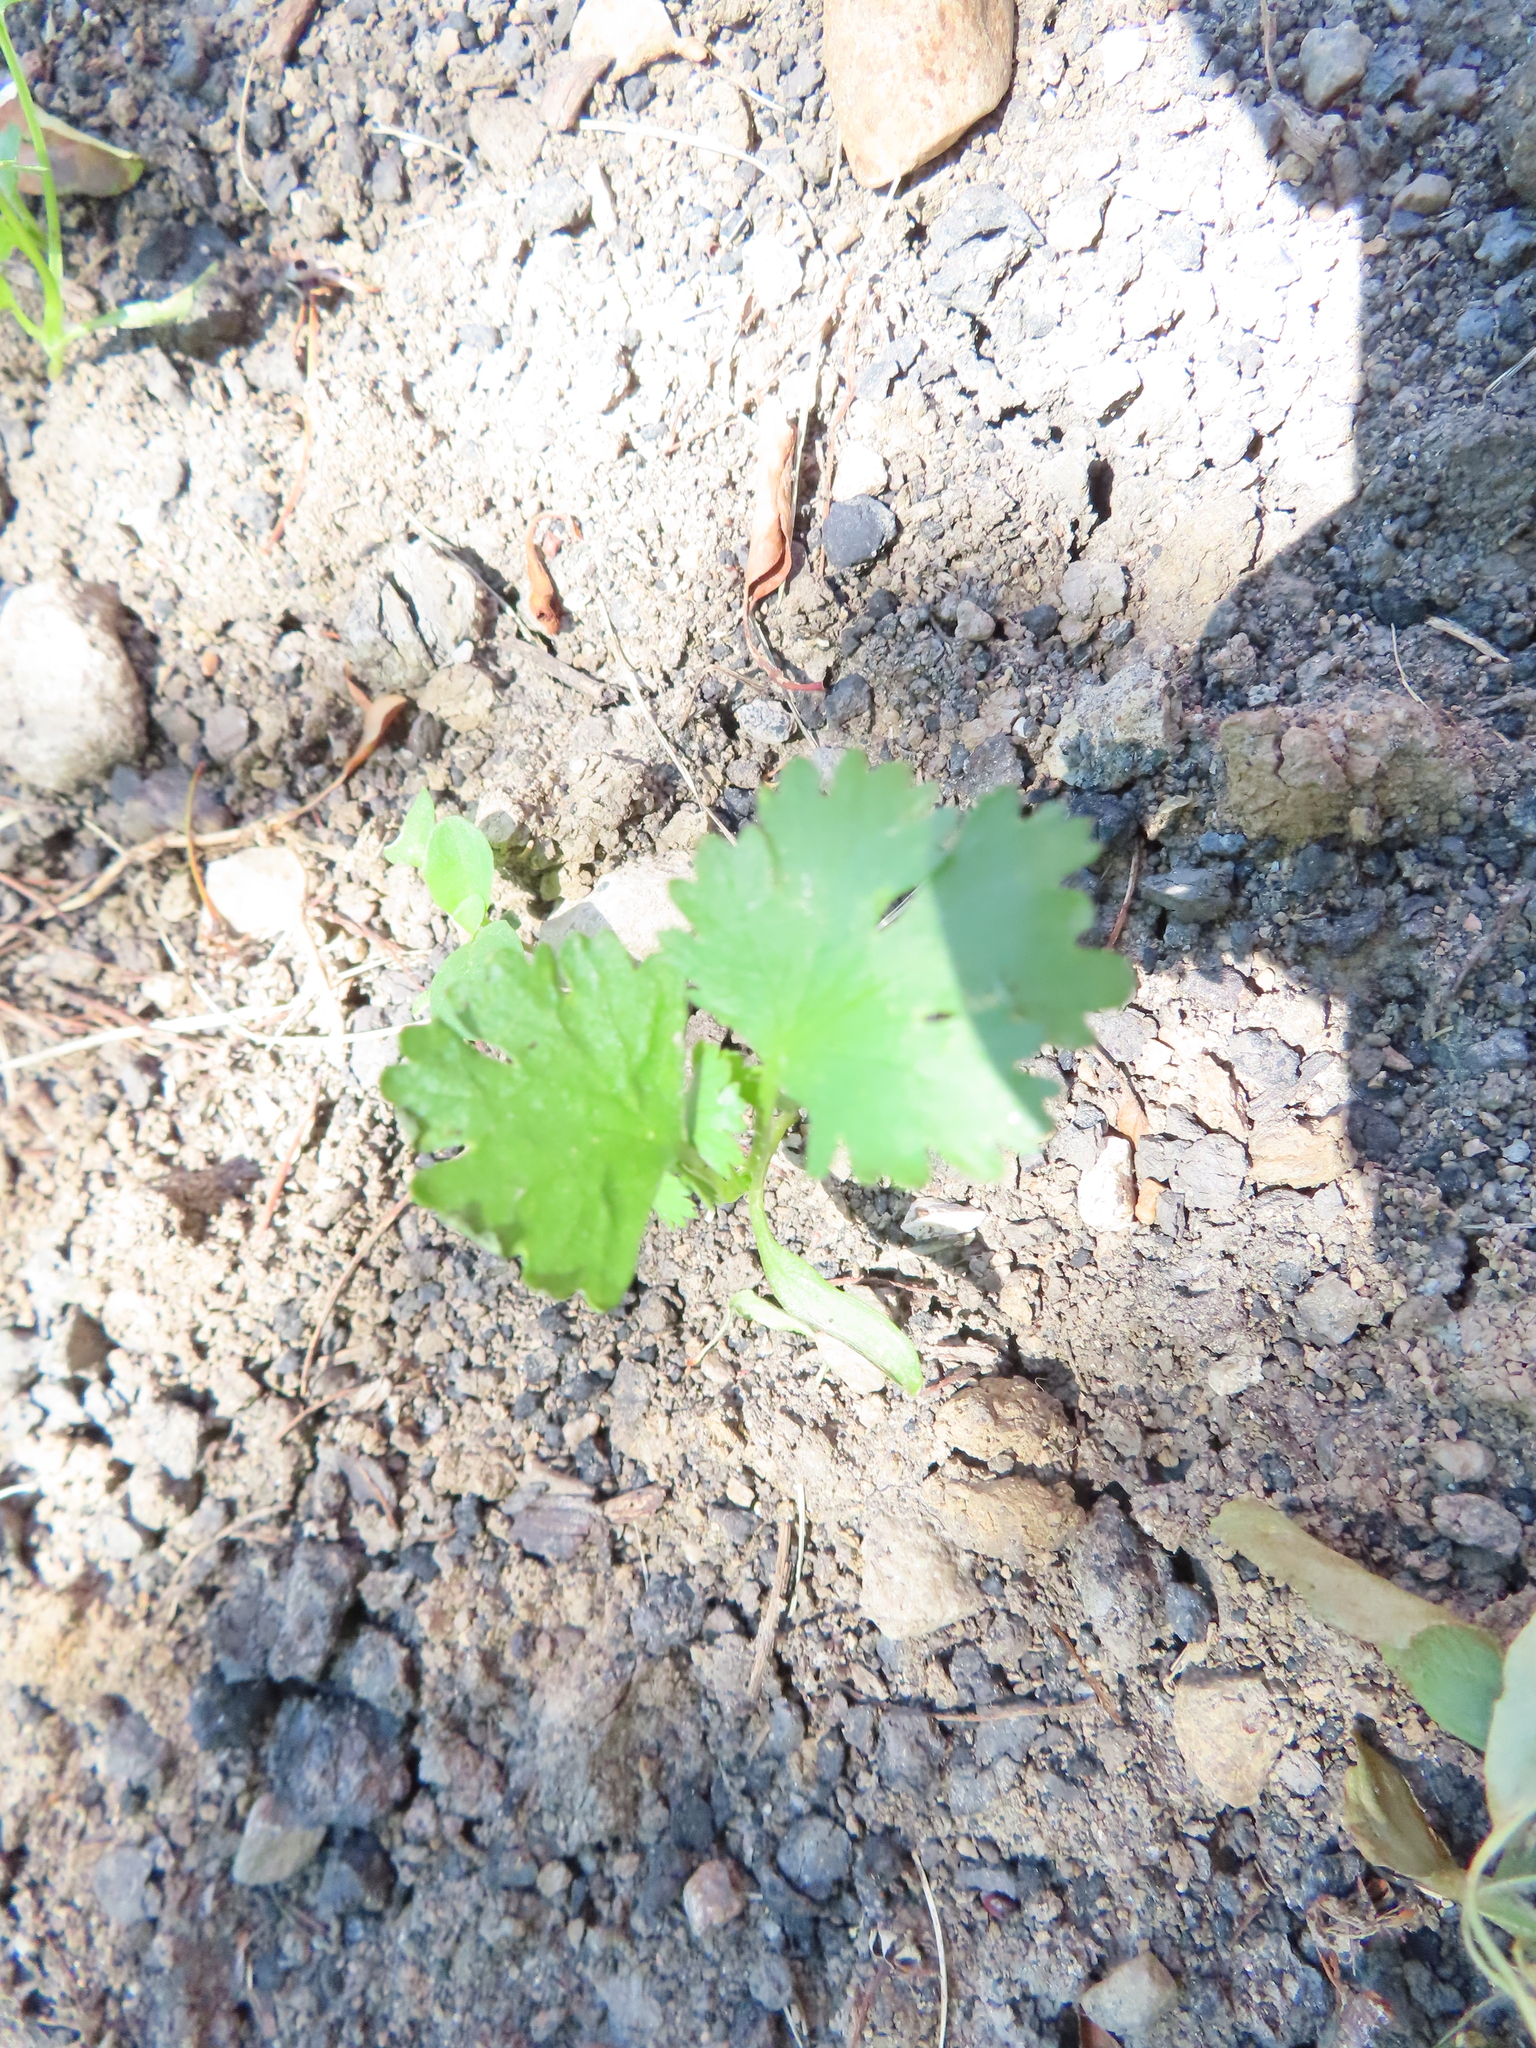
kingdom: Plantae
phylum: Tracheophyta
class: Magnoliopsida
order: Apiales
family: Apiaceae
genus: Coriandrum
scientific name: Coriandrum sativum
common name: Coriander
